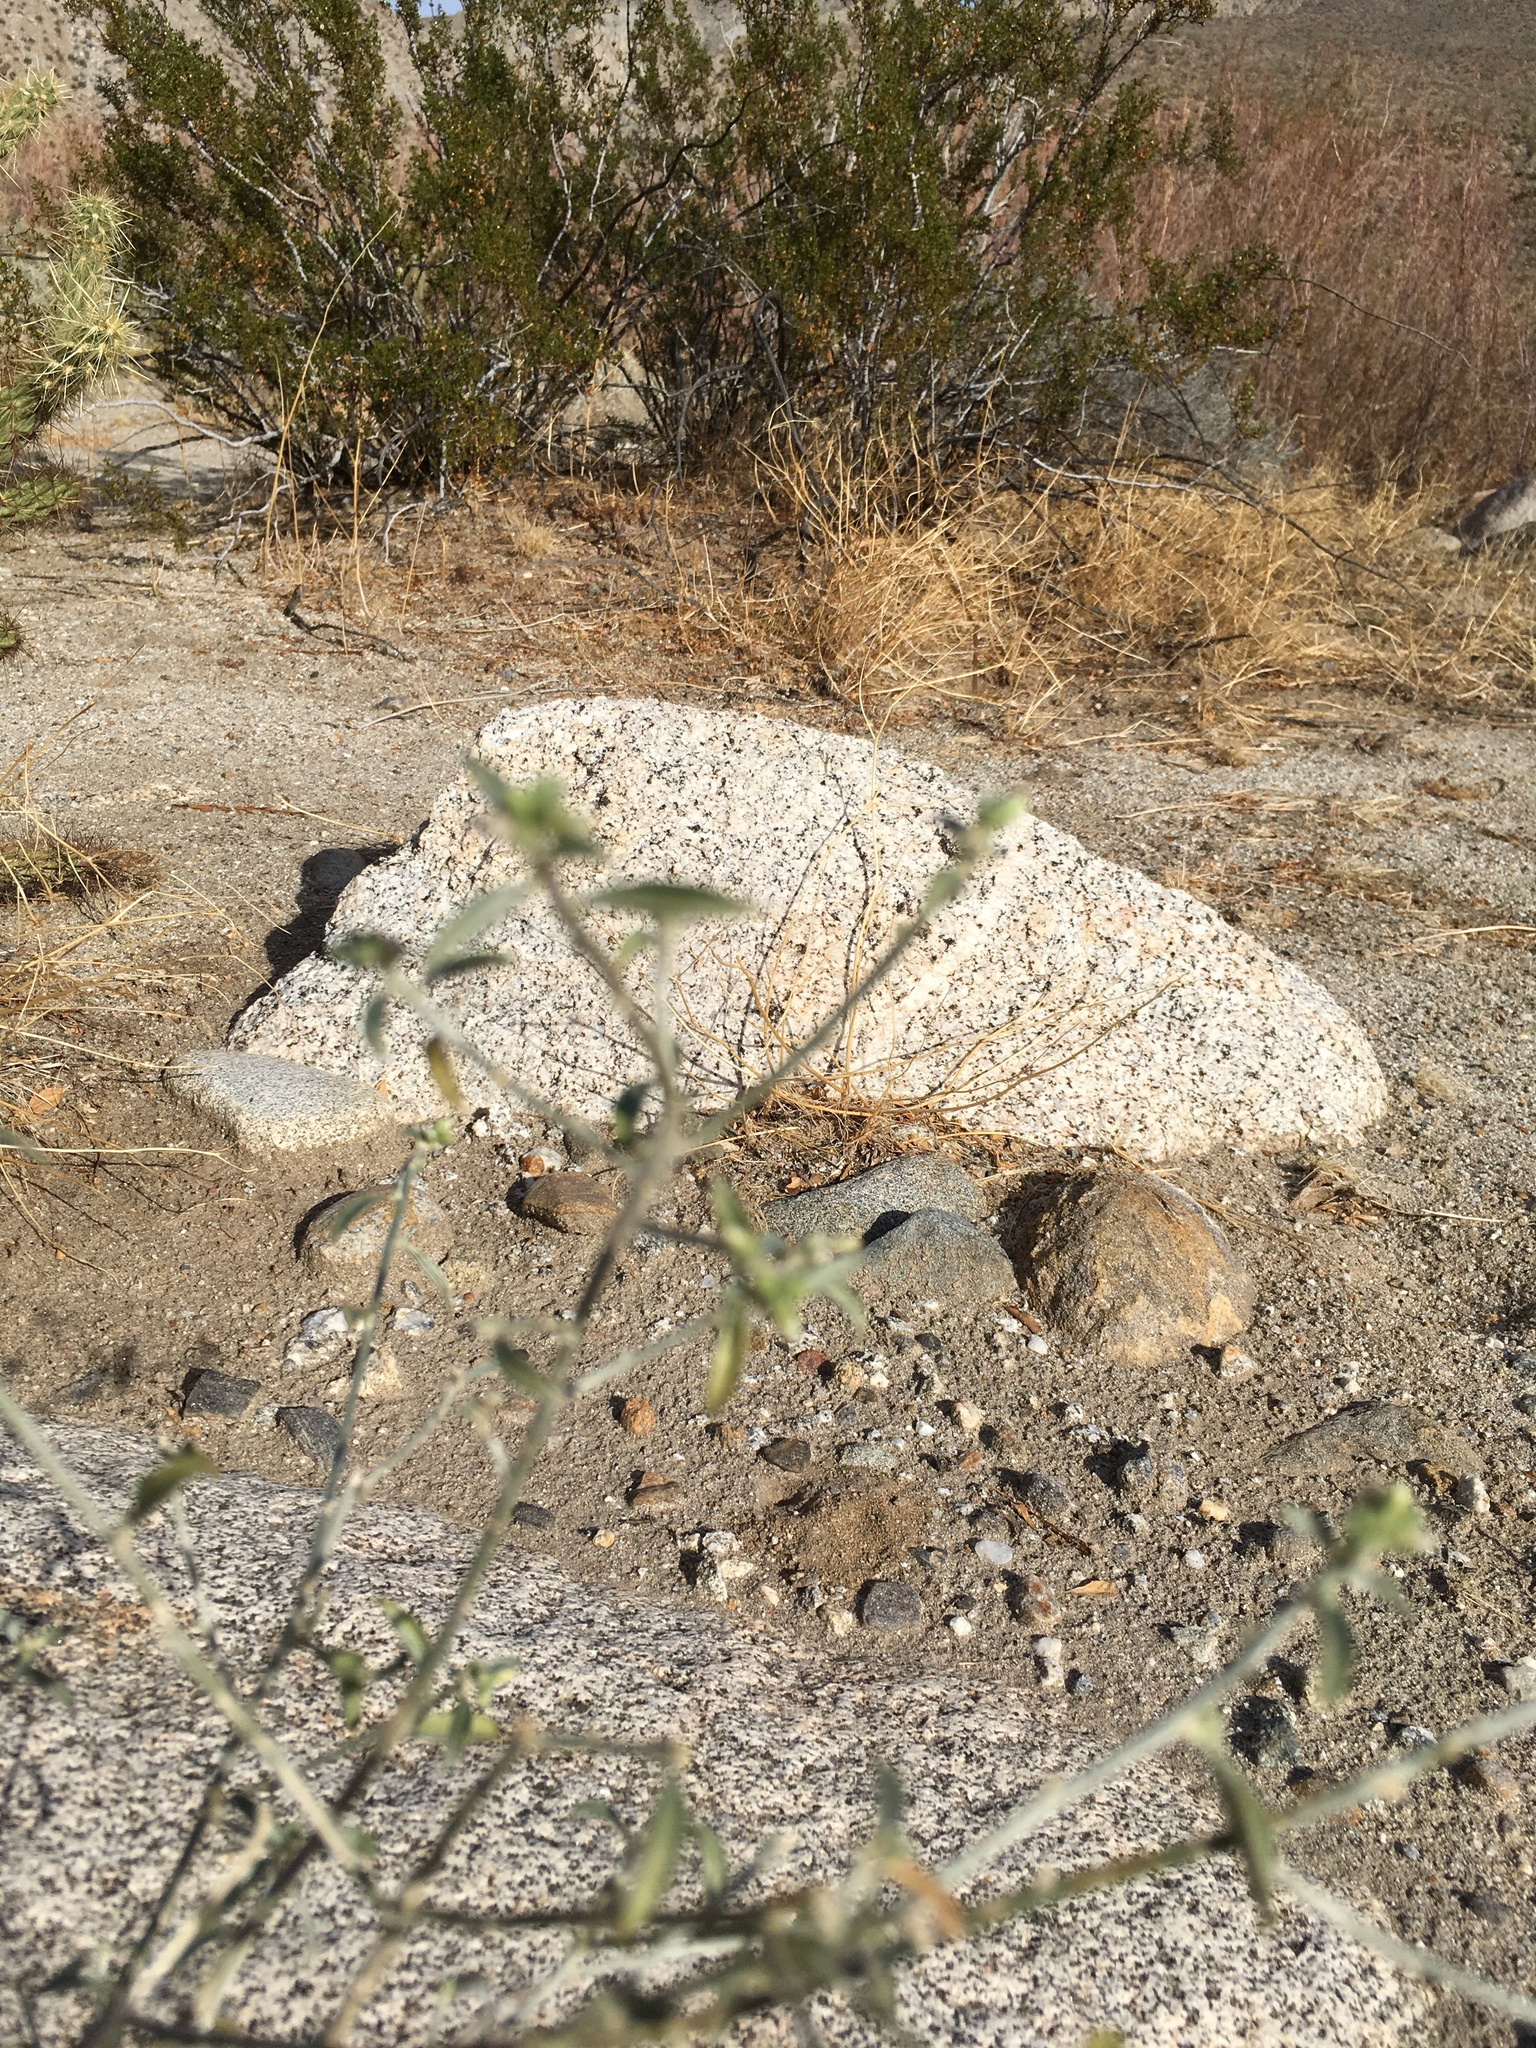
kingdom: Plantae
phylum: Tracheophyta
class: Magnoliopsida
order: Malpighiales
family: Euphorbiaceae
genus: Ditaxis
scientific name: Ditaxis lanceolata
